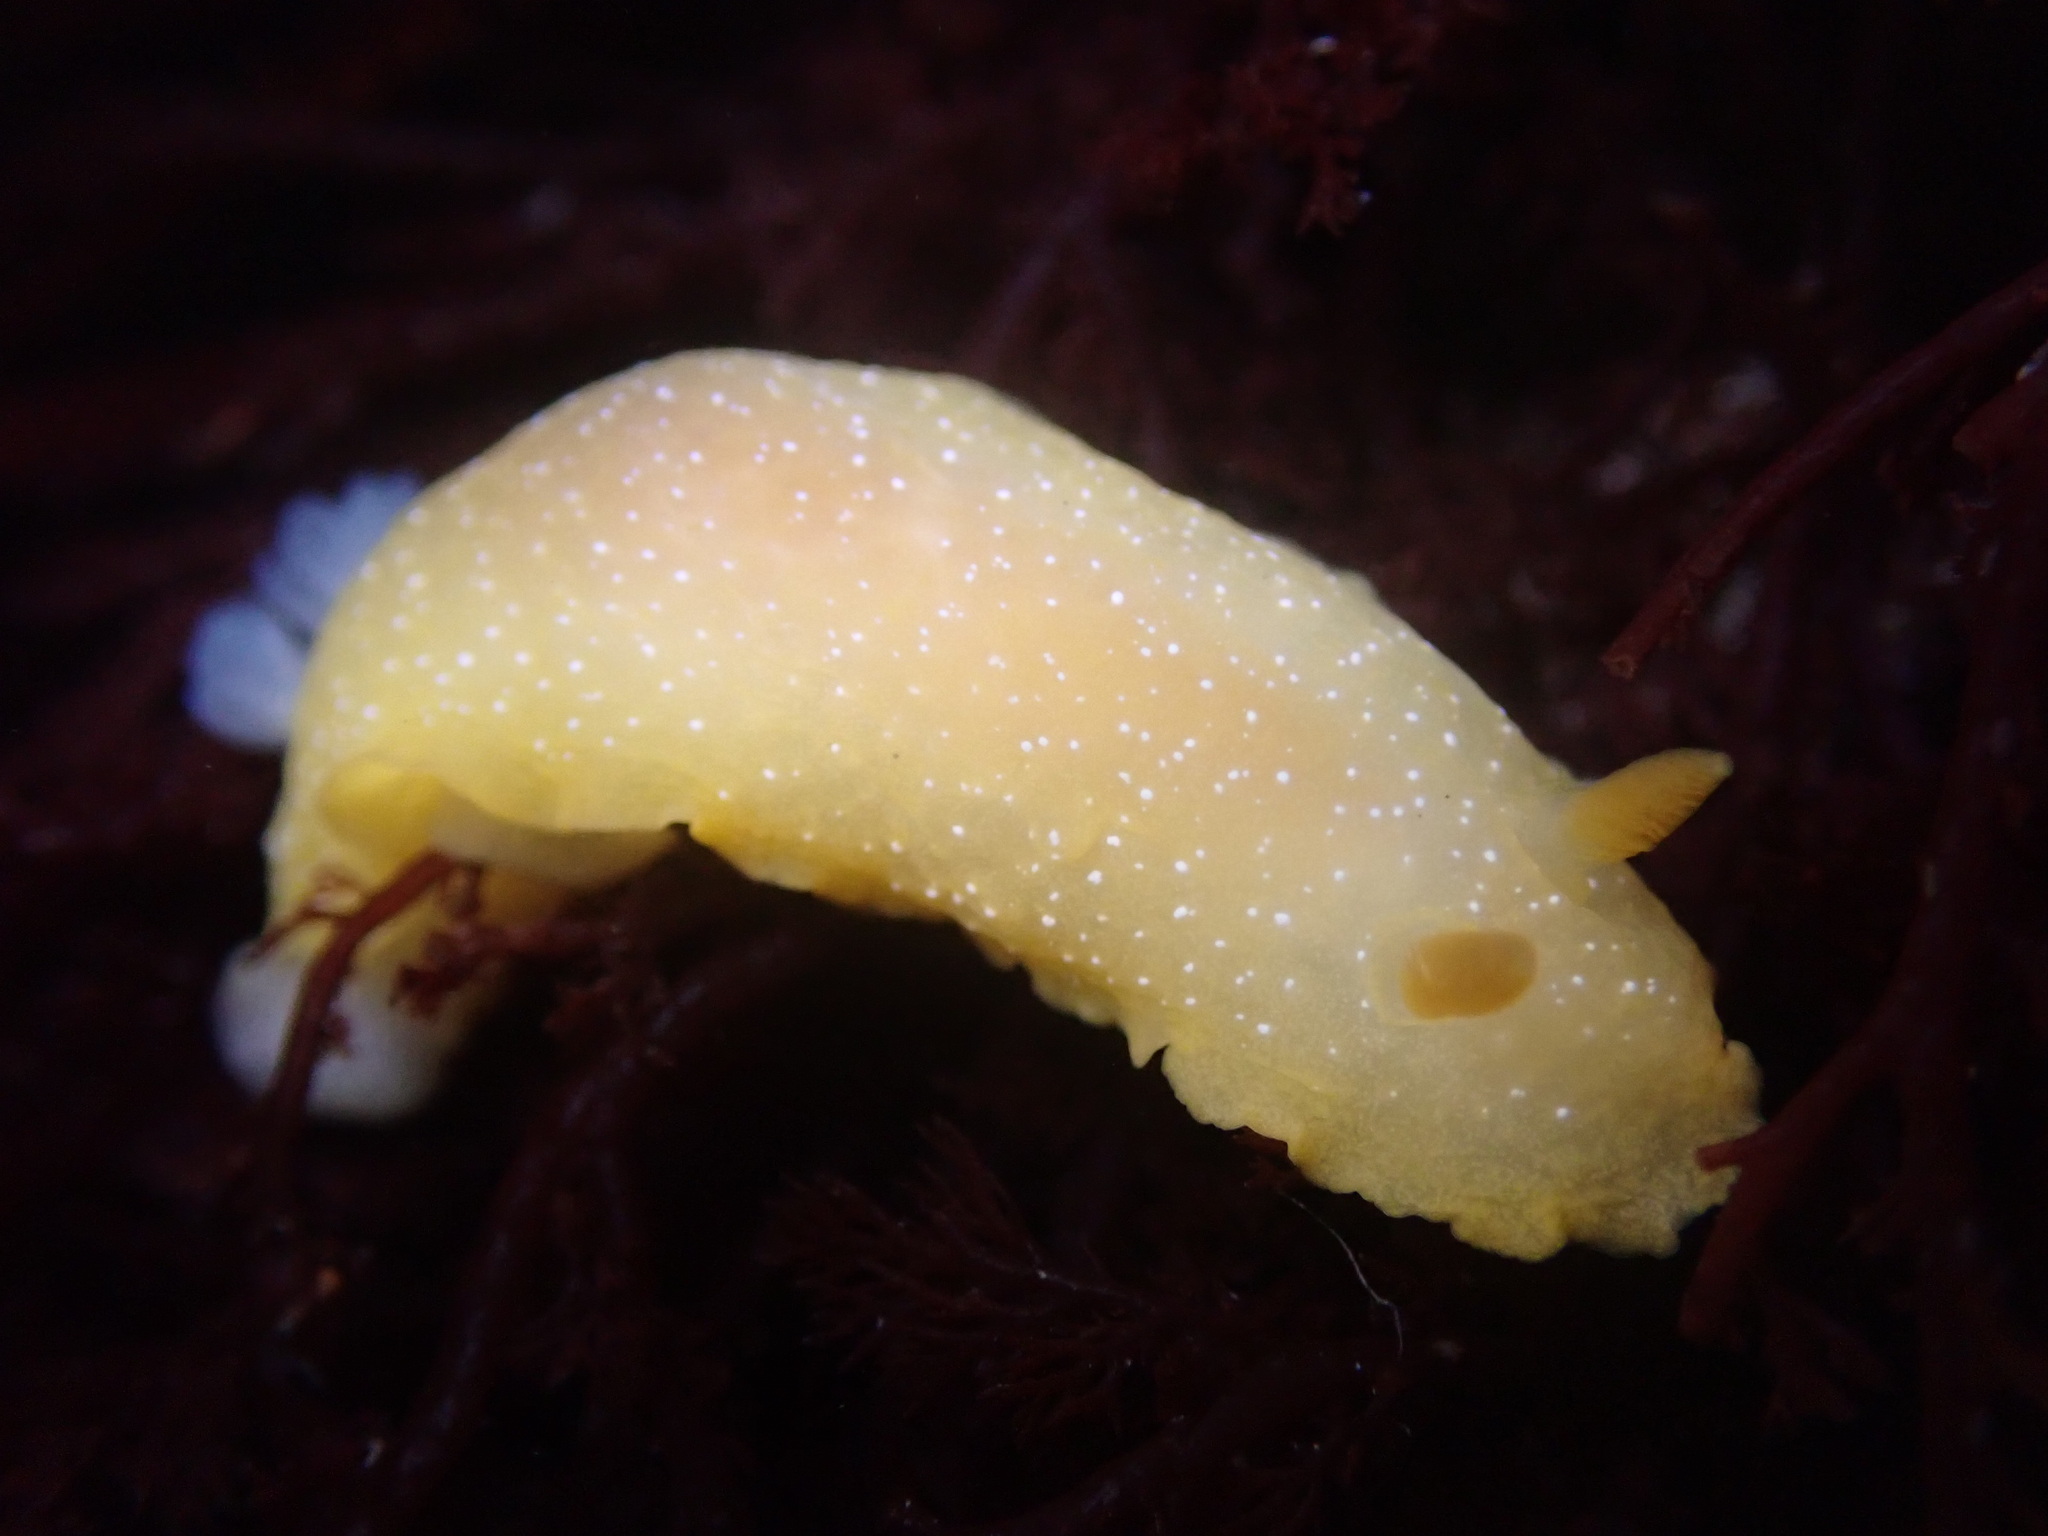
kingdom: Animalia
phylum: Mollusca
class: Gastropoda
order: Nudibranchia
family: Dendrodorididae
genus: Doriopsilla
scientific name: Doriopsilla fulva
